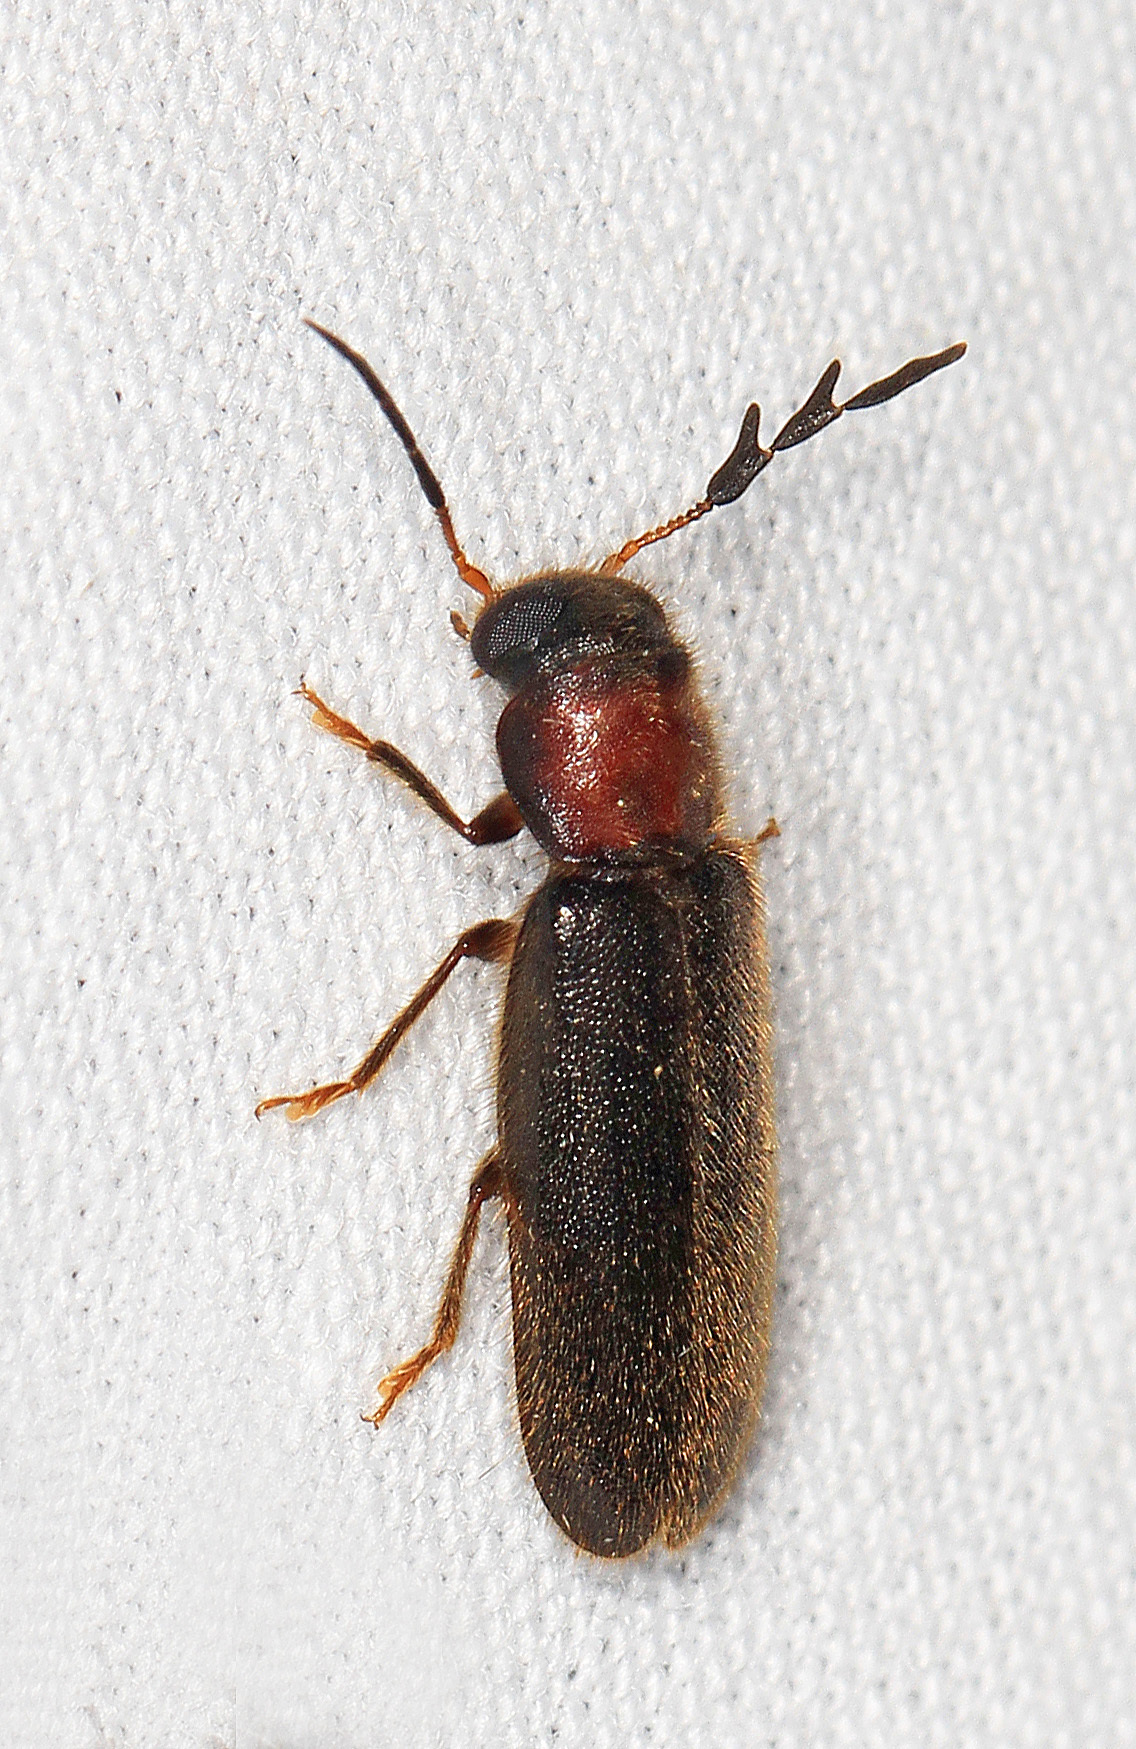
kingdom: Animalia
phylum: Arthropoda
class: Insecta
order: Coleoptera
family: Cleridae
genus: Neorthopleura
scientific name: Neorthopleura texana
